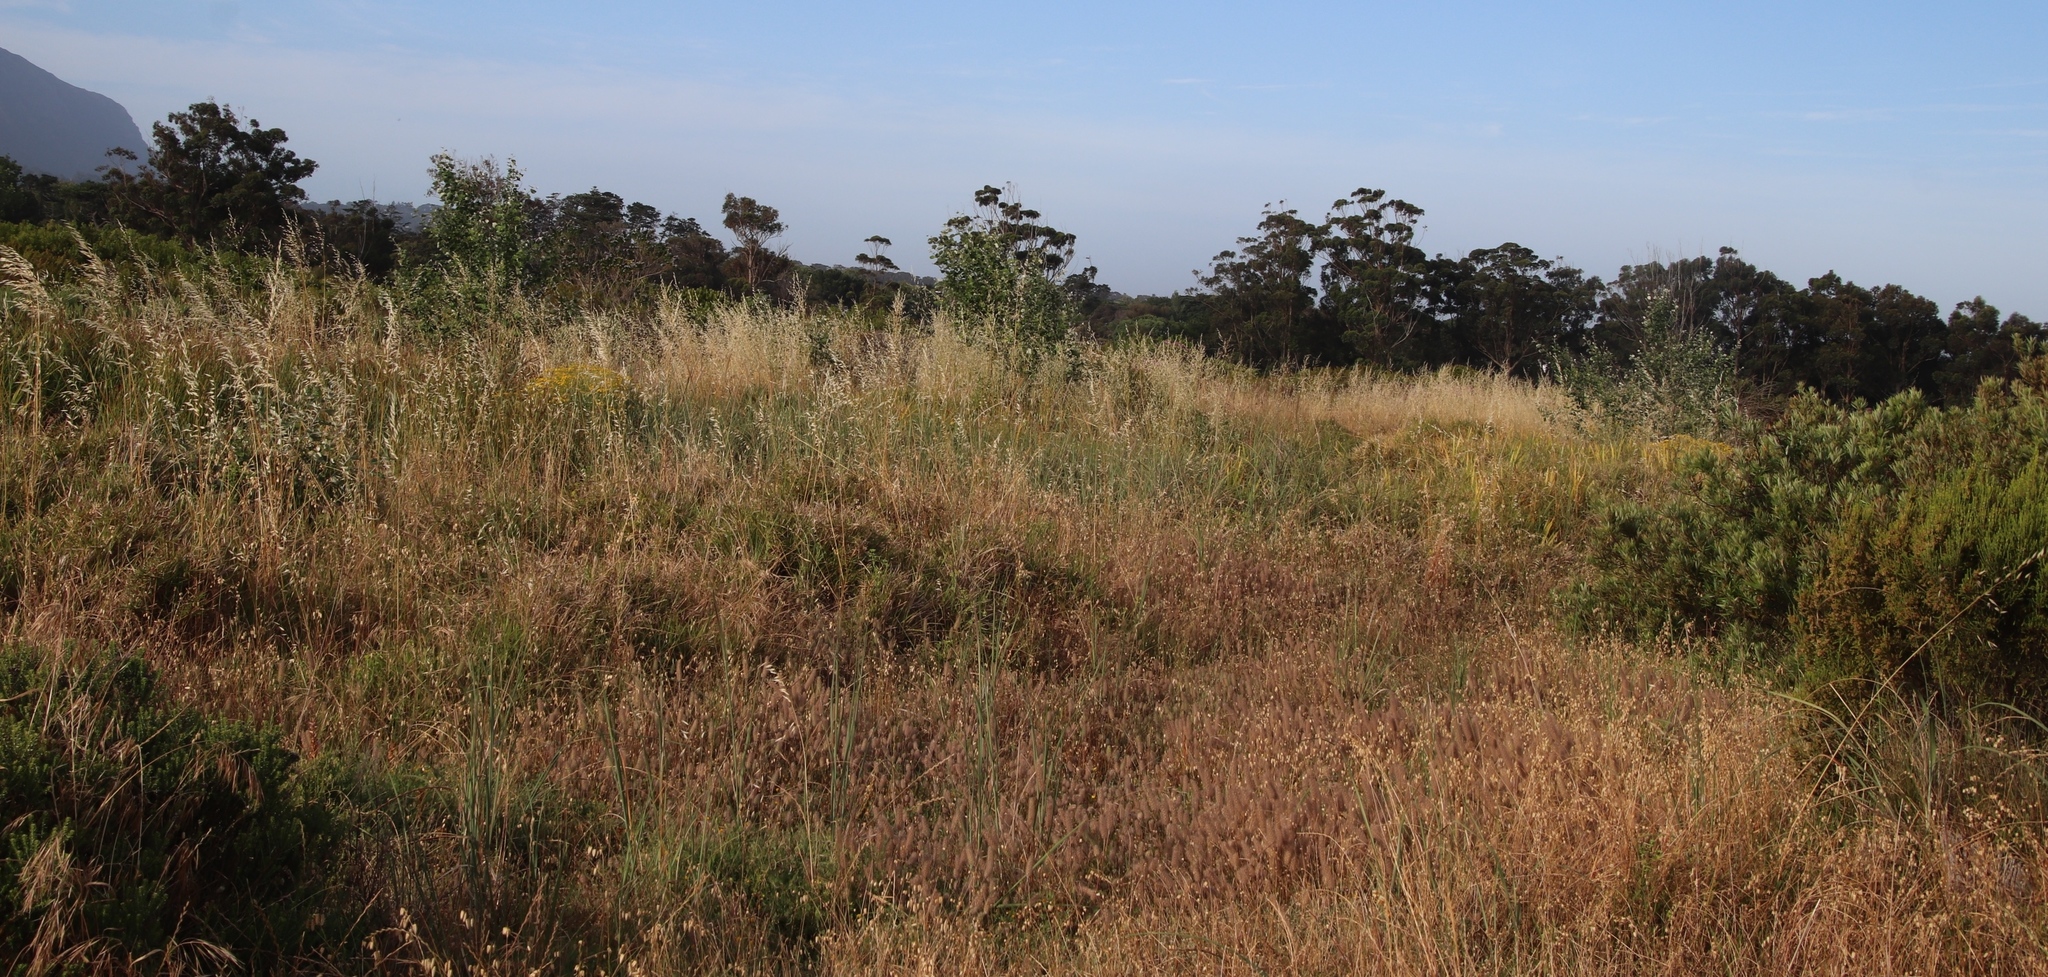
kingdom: Plantae
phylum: Tracheophyta
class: Liliopsida
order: Poales
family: Poaceae
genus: Briza
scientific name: Briza maxima
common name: Big quakinggrass
